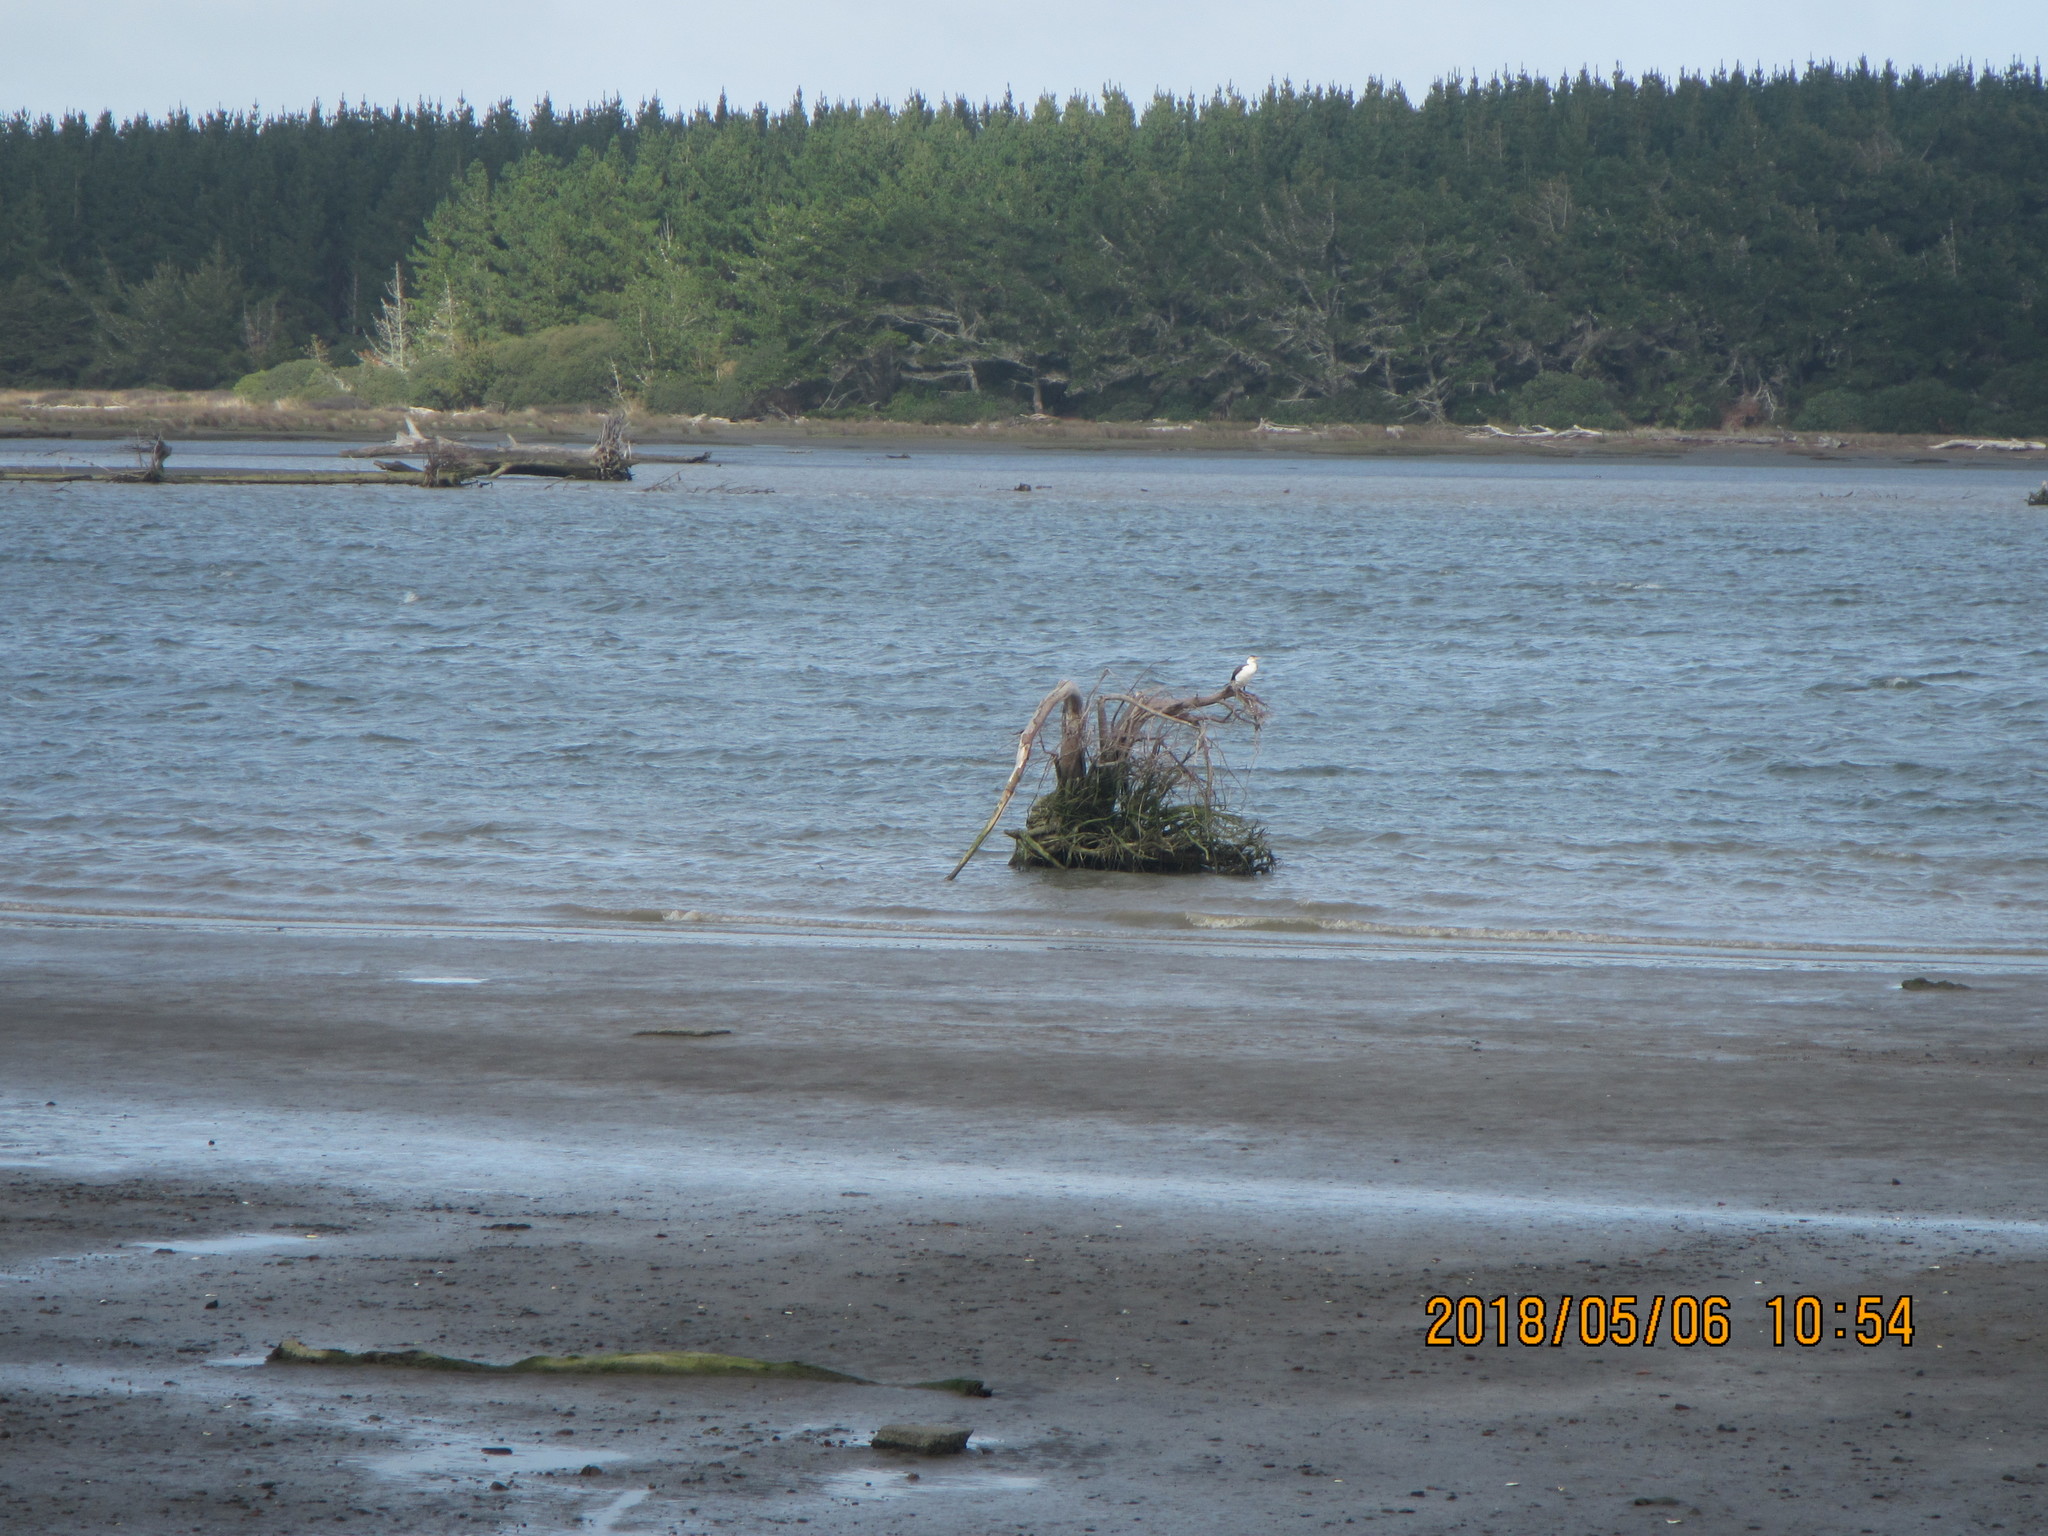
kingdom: Animalia
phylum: Chordata
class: Aves
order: Suliformes
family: Phalacrocoracidae
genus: Phalacrocorax
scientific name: Phalacrocorax varius
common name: Pied cormorant
